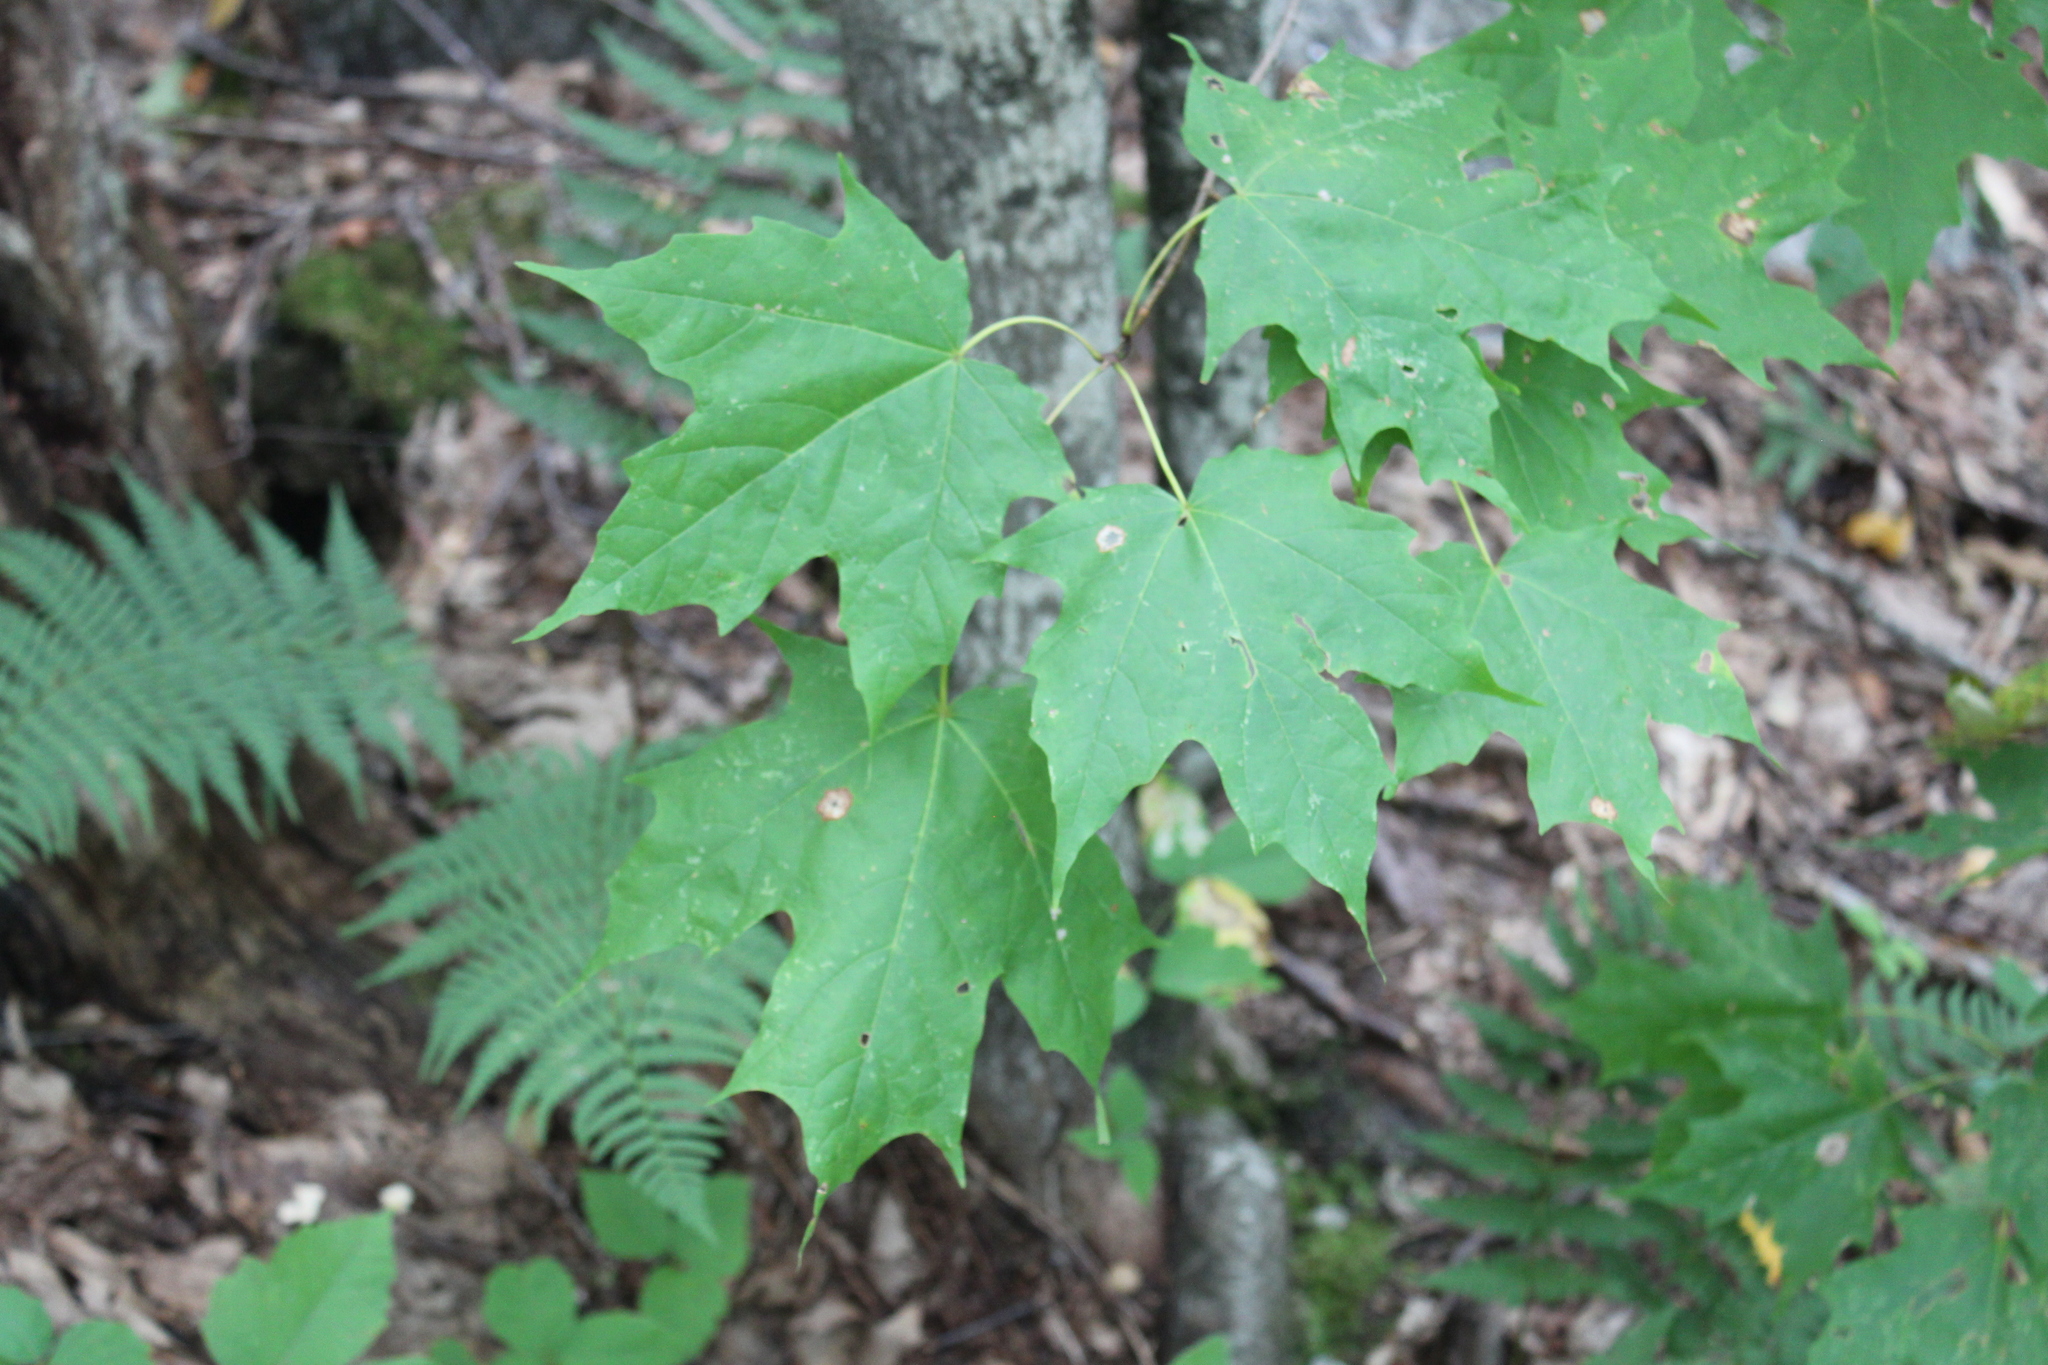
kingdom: Plantae
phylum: Tracheophyta
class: Magnoliopsida
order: Sapindales
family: Sapindaceae
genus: Acer
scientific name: Acer saccharum
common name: Sugar maple
